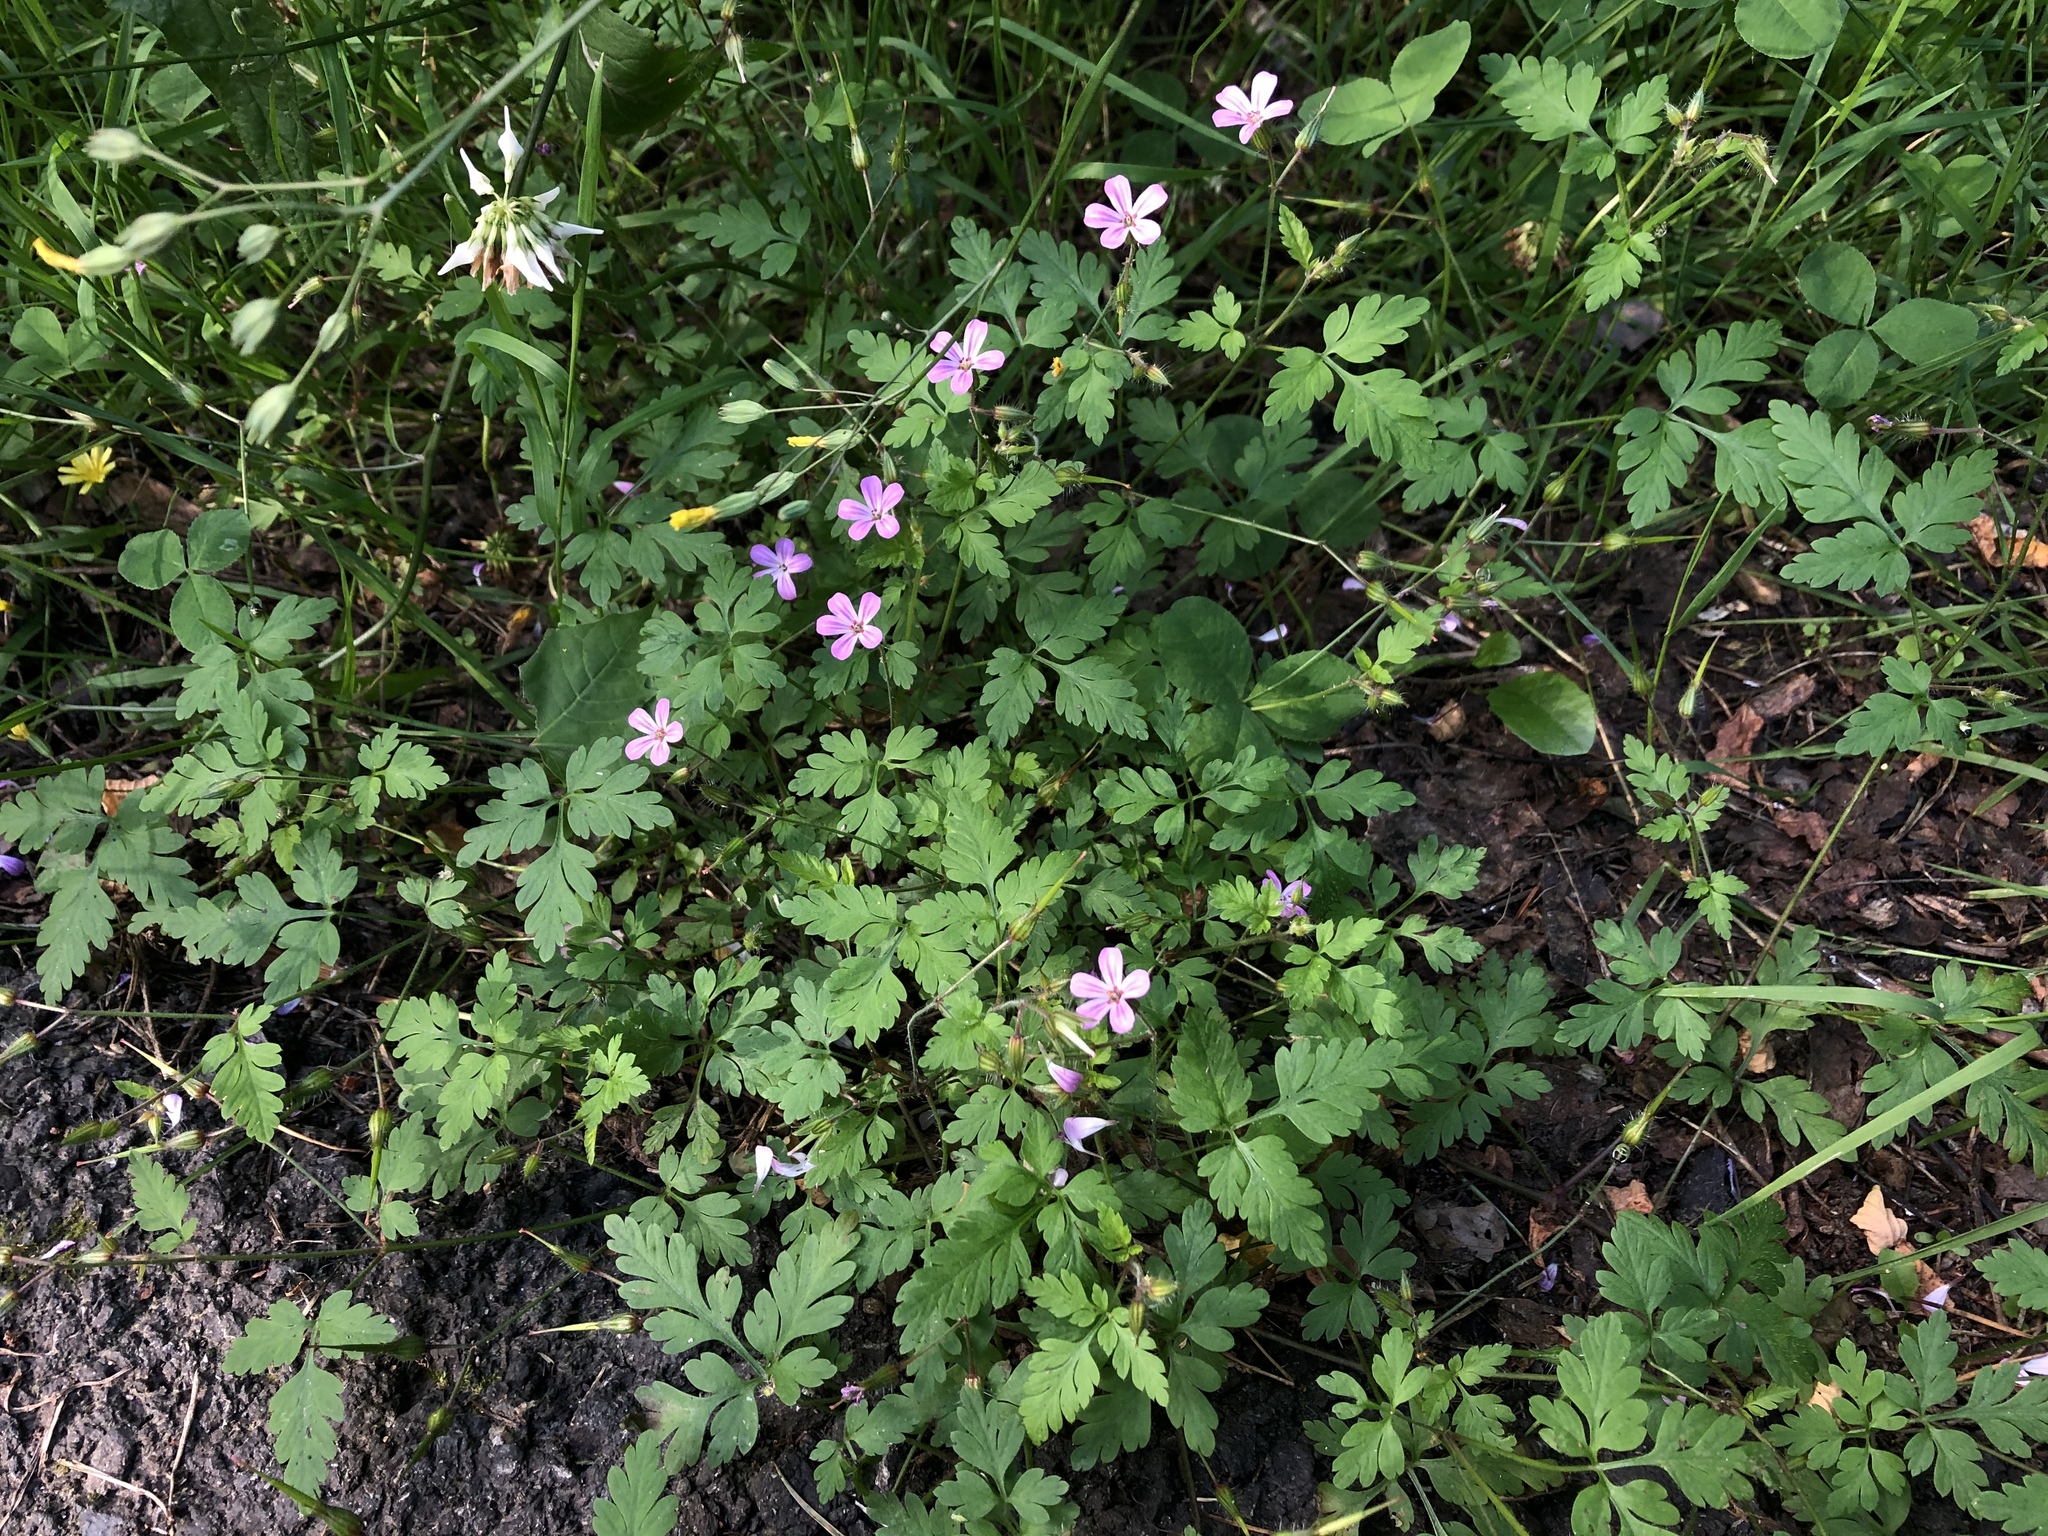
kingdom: Plantae
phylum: Tracheophyta
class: Magnoliopsida
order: Geraniales
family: Geraniaceae
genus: Geranium
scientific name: Geranium robertianum
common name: Herb-robert
